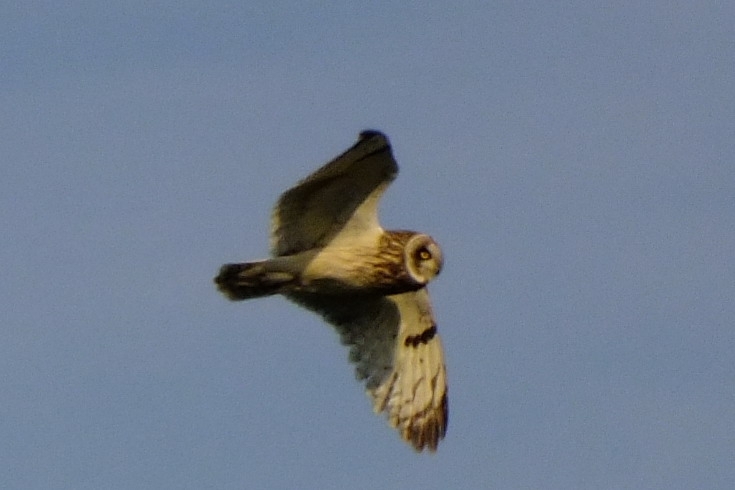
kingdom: Animalia
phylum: Chordata
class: Aves
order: Strigiformes
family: Strigidae
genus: Asio
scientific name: Asio flammeus
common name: Short-eared owl
